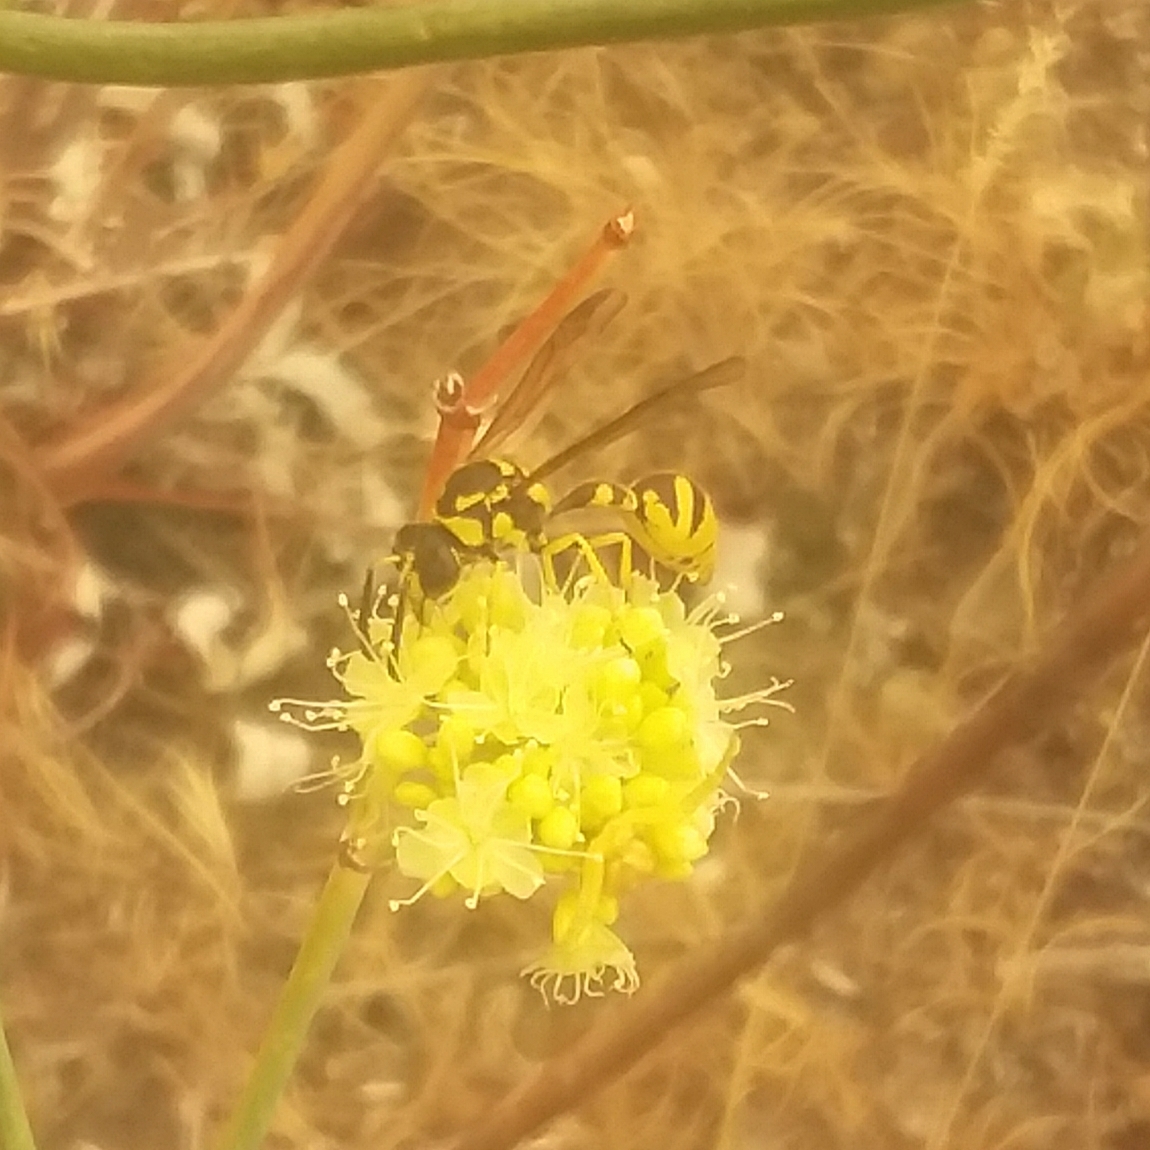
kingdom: Animalia
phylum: Arthropoda
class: Insecta
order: Hymenoptera
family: Vespidae
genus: Eumenes
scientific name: Eumenes verticalis
